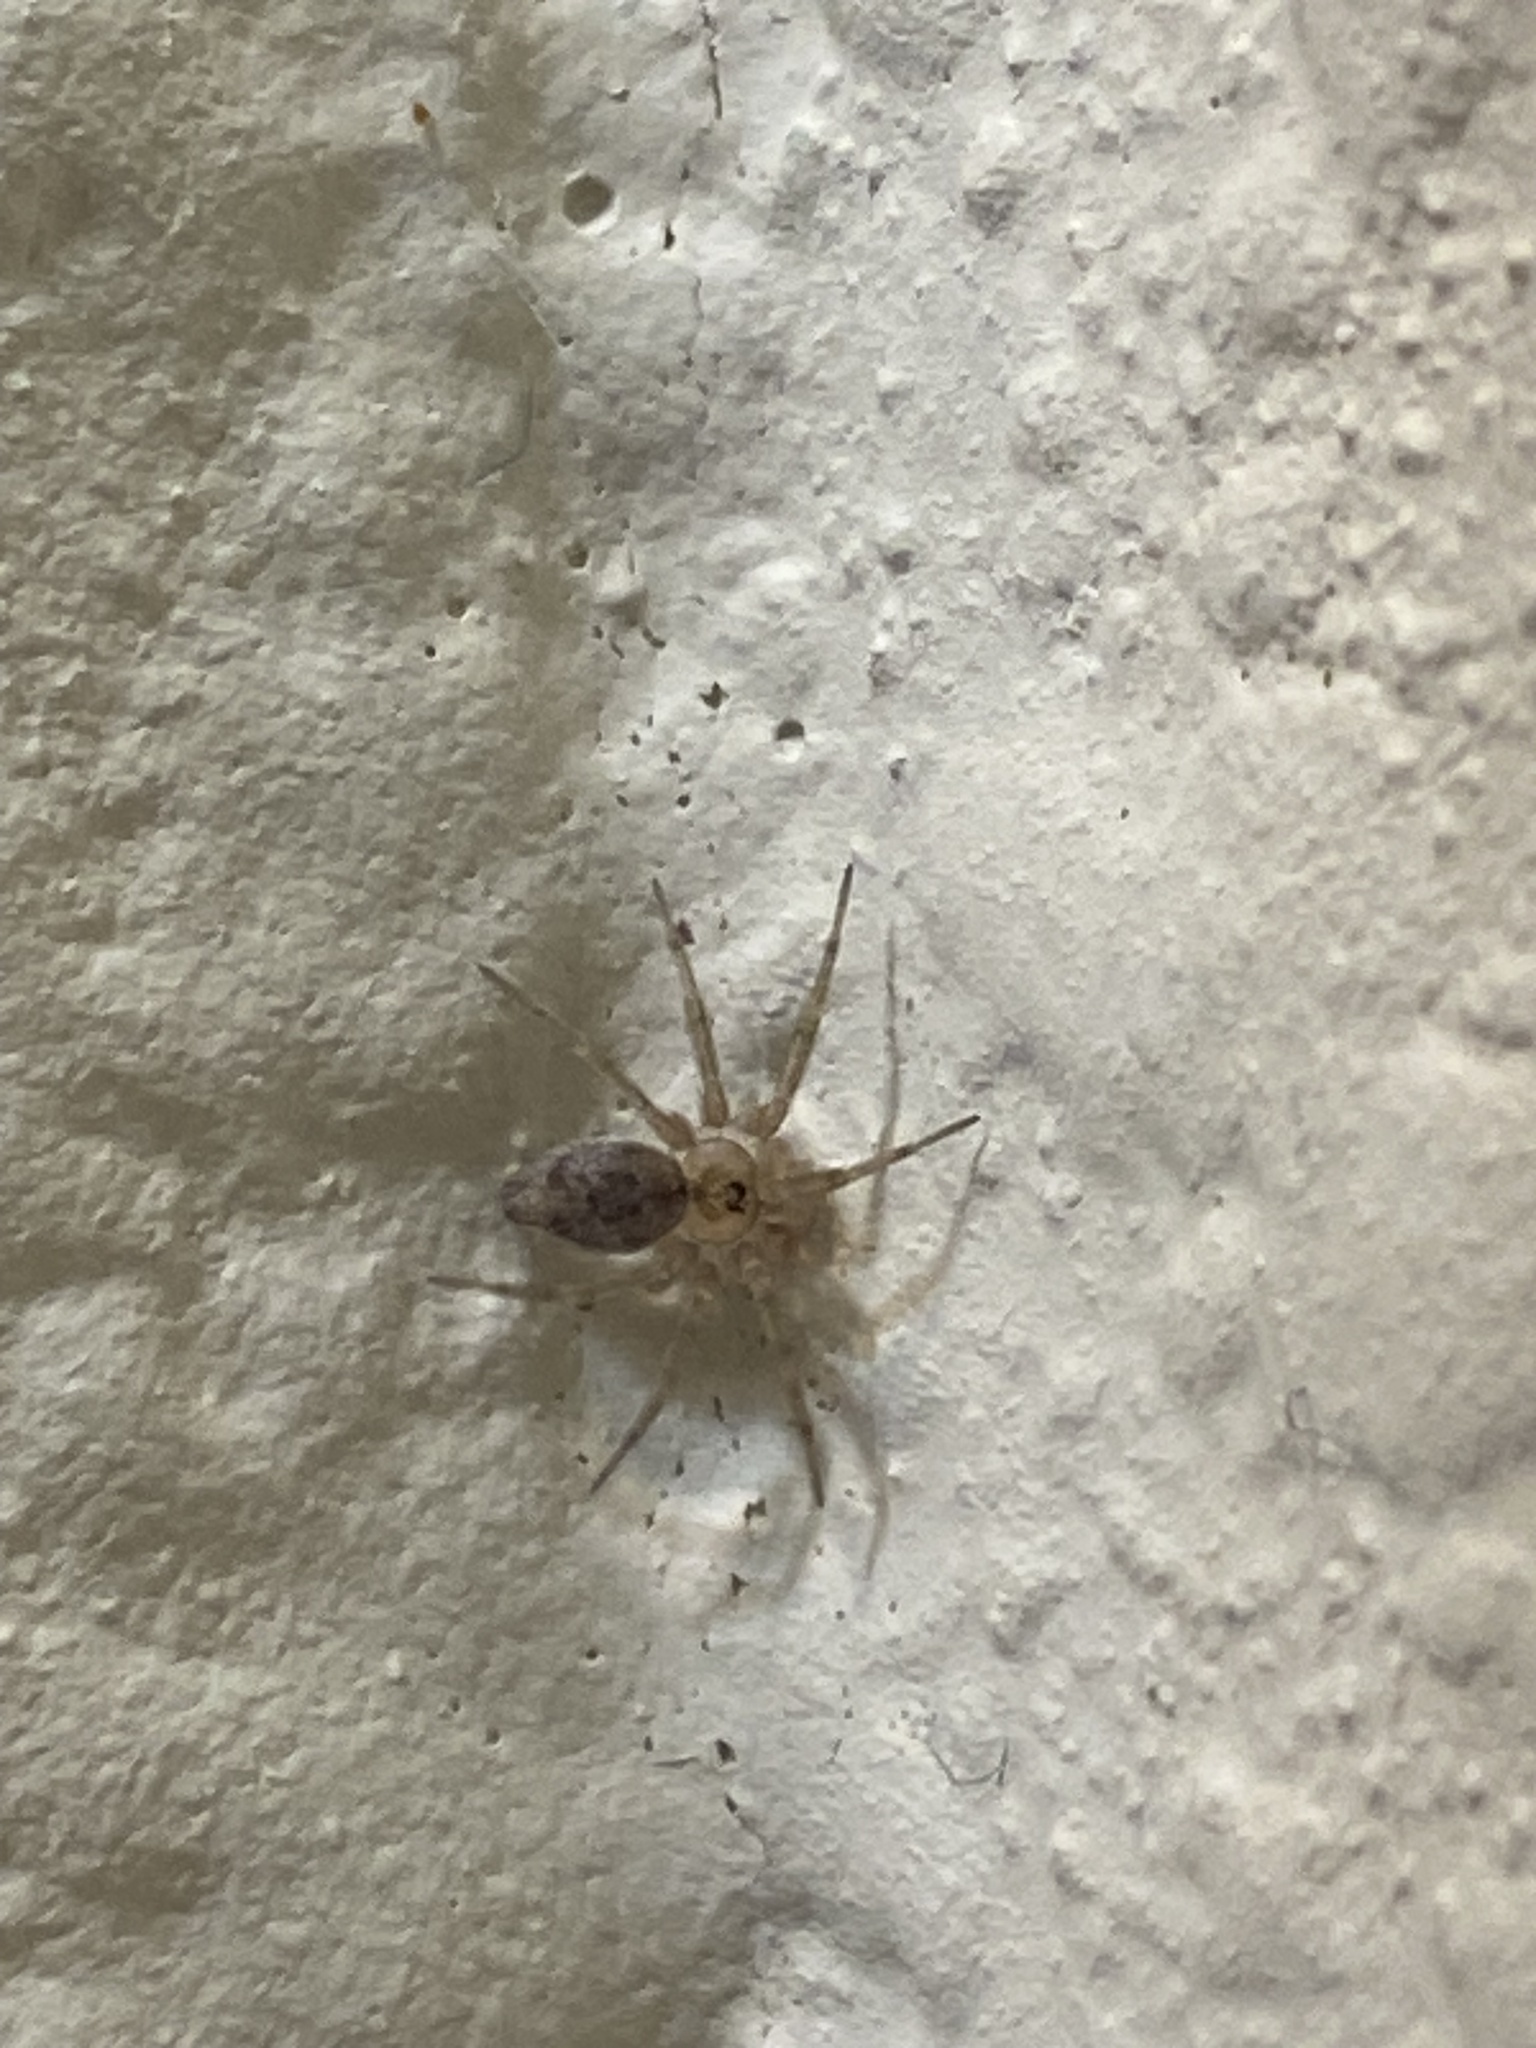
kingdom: Animalia
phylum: Arthropoda
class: Arachnida
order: Araneae
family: Oecobiidae
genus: Oecobius
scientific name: Oecobius
